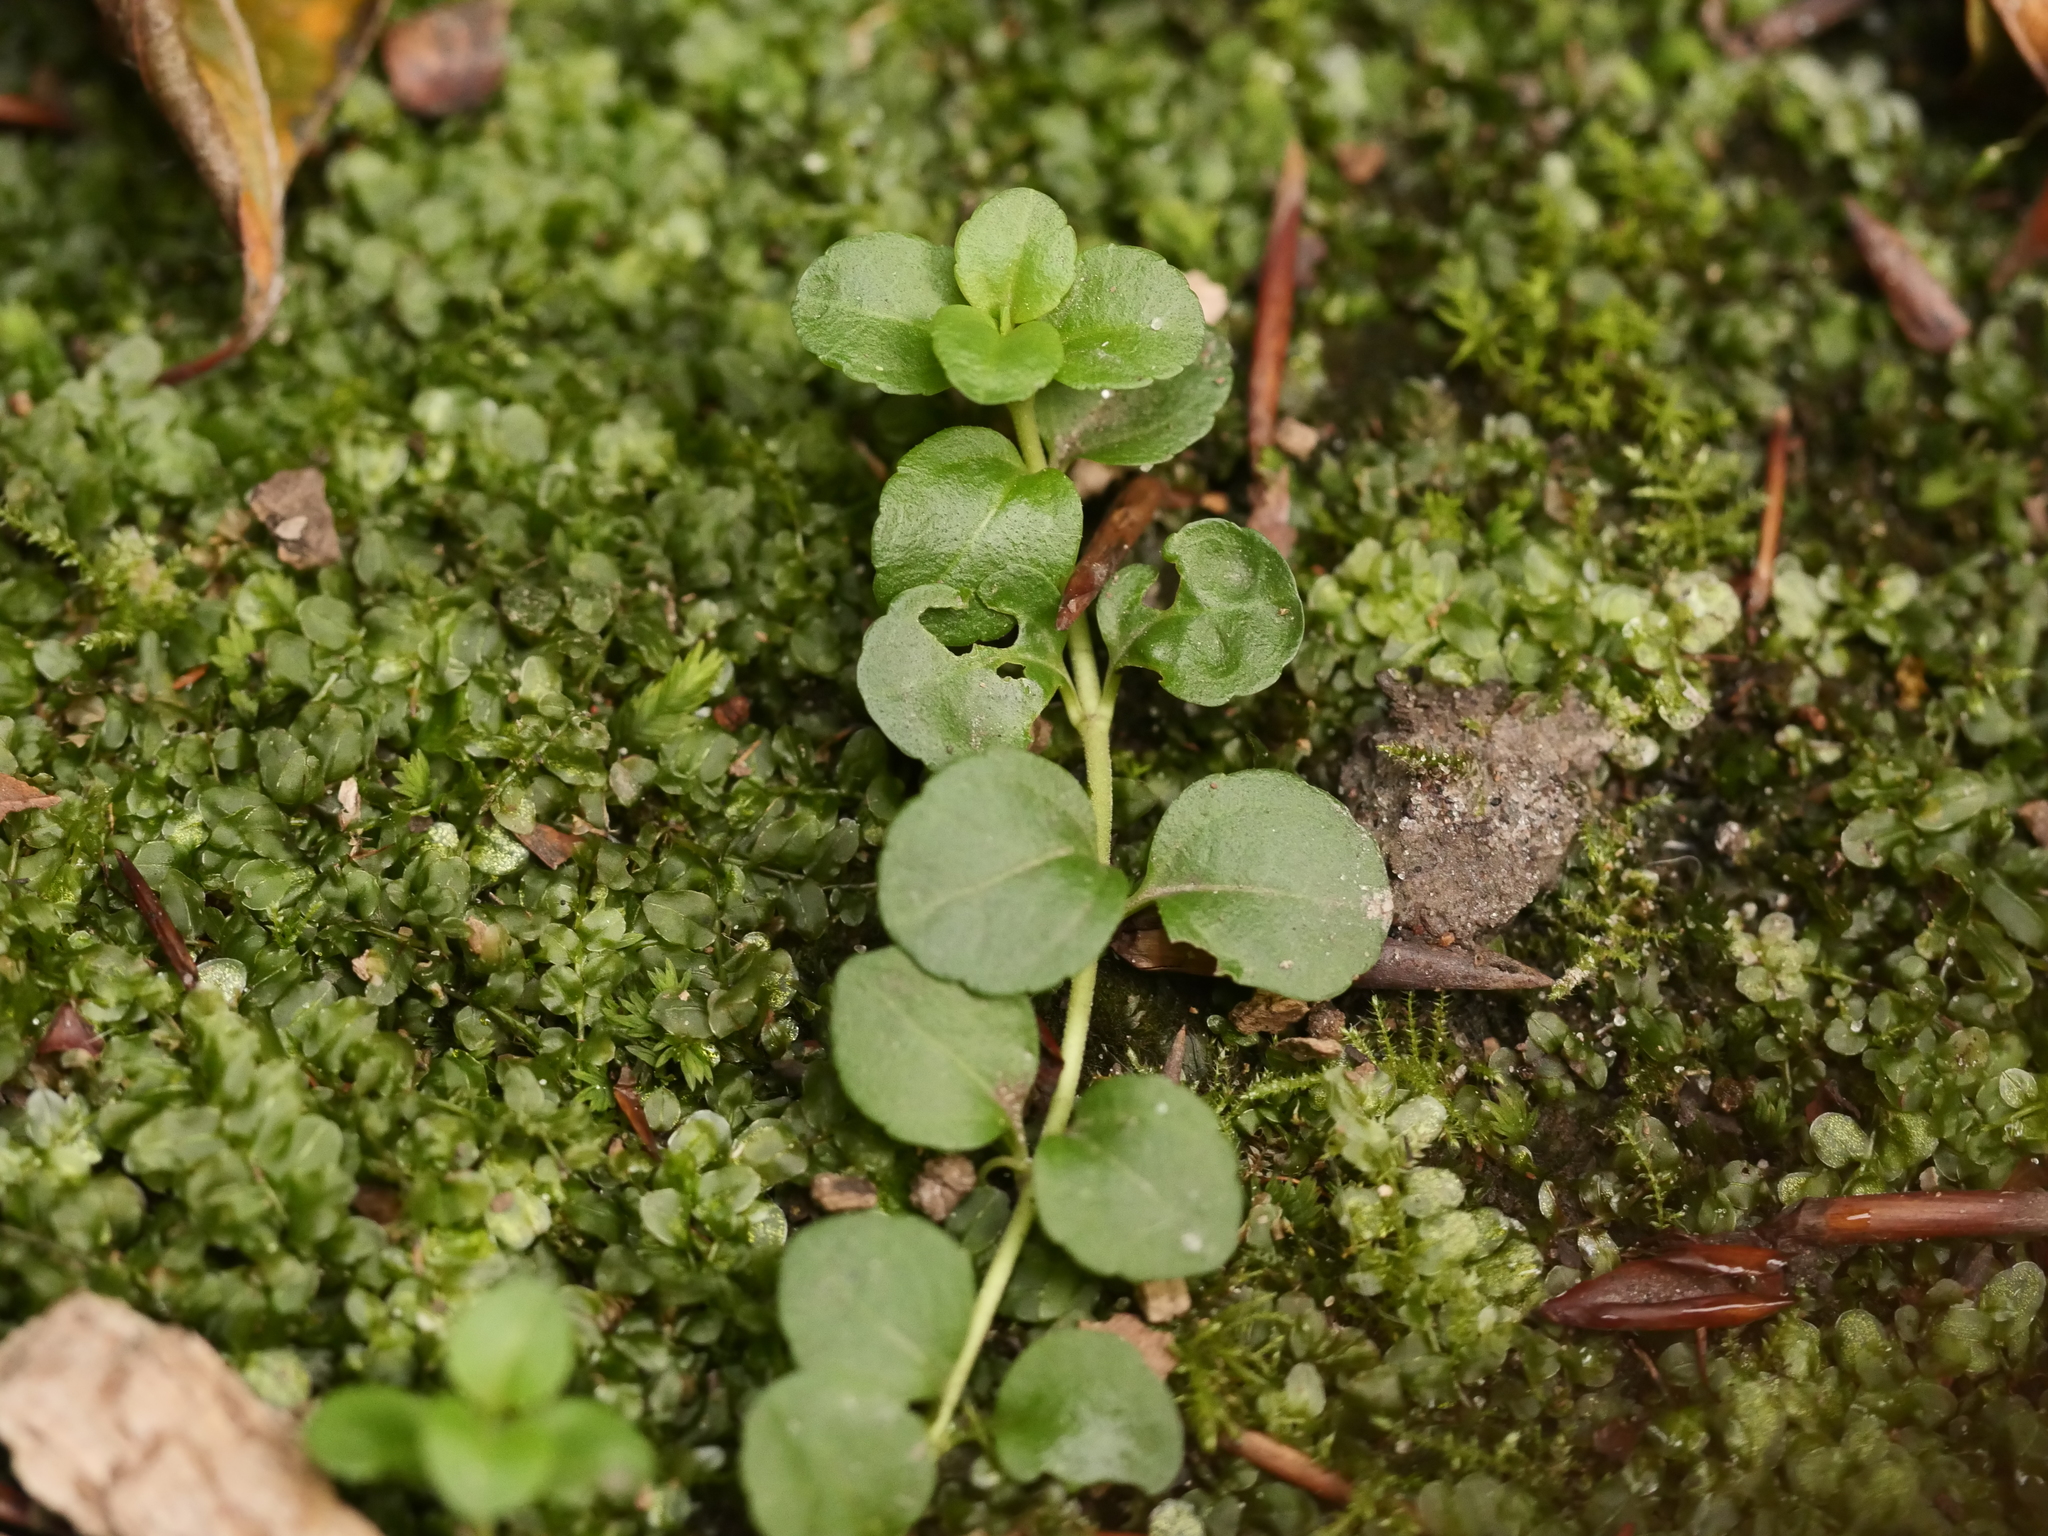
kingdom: Plantae
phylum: Tracheophyta
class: Magnoliopsida
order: Lamiales
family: Plantaginaceae
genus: Veronica
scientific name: Veronica serpyllifolia
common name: Thyme-leaved speedwell
